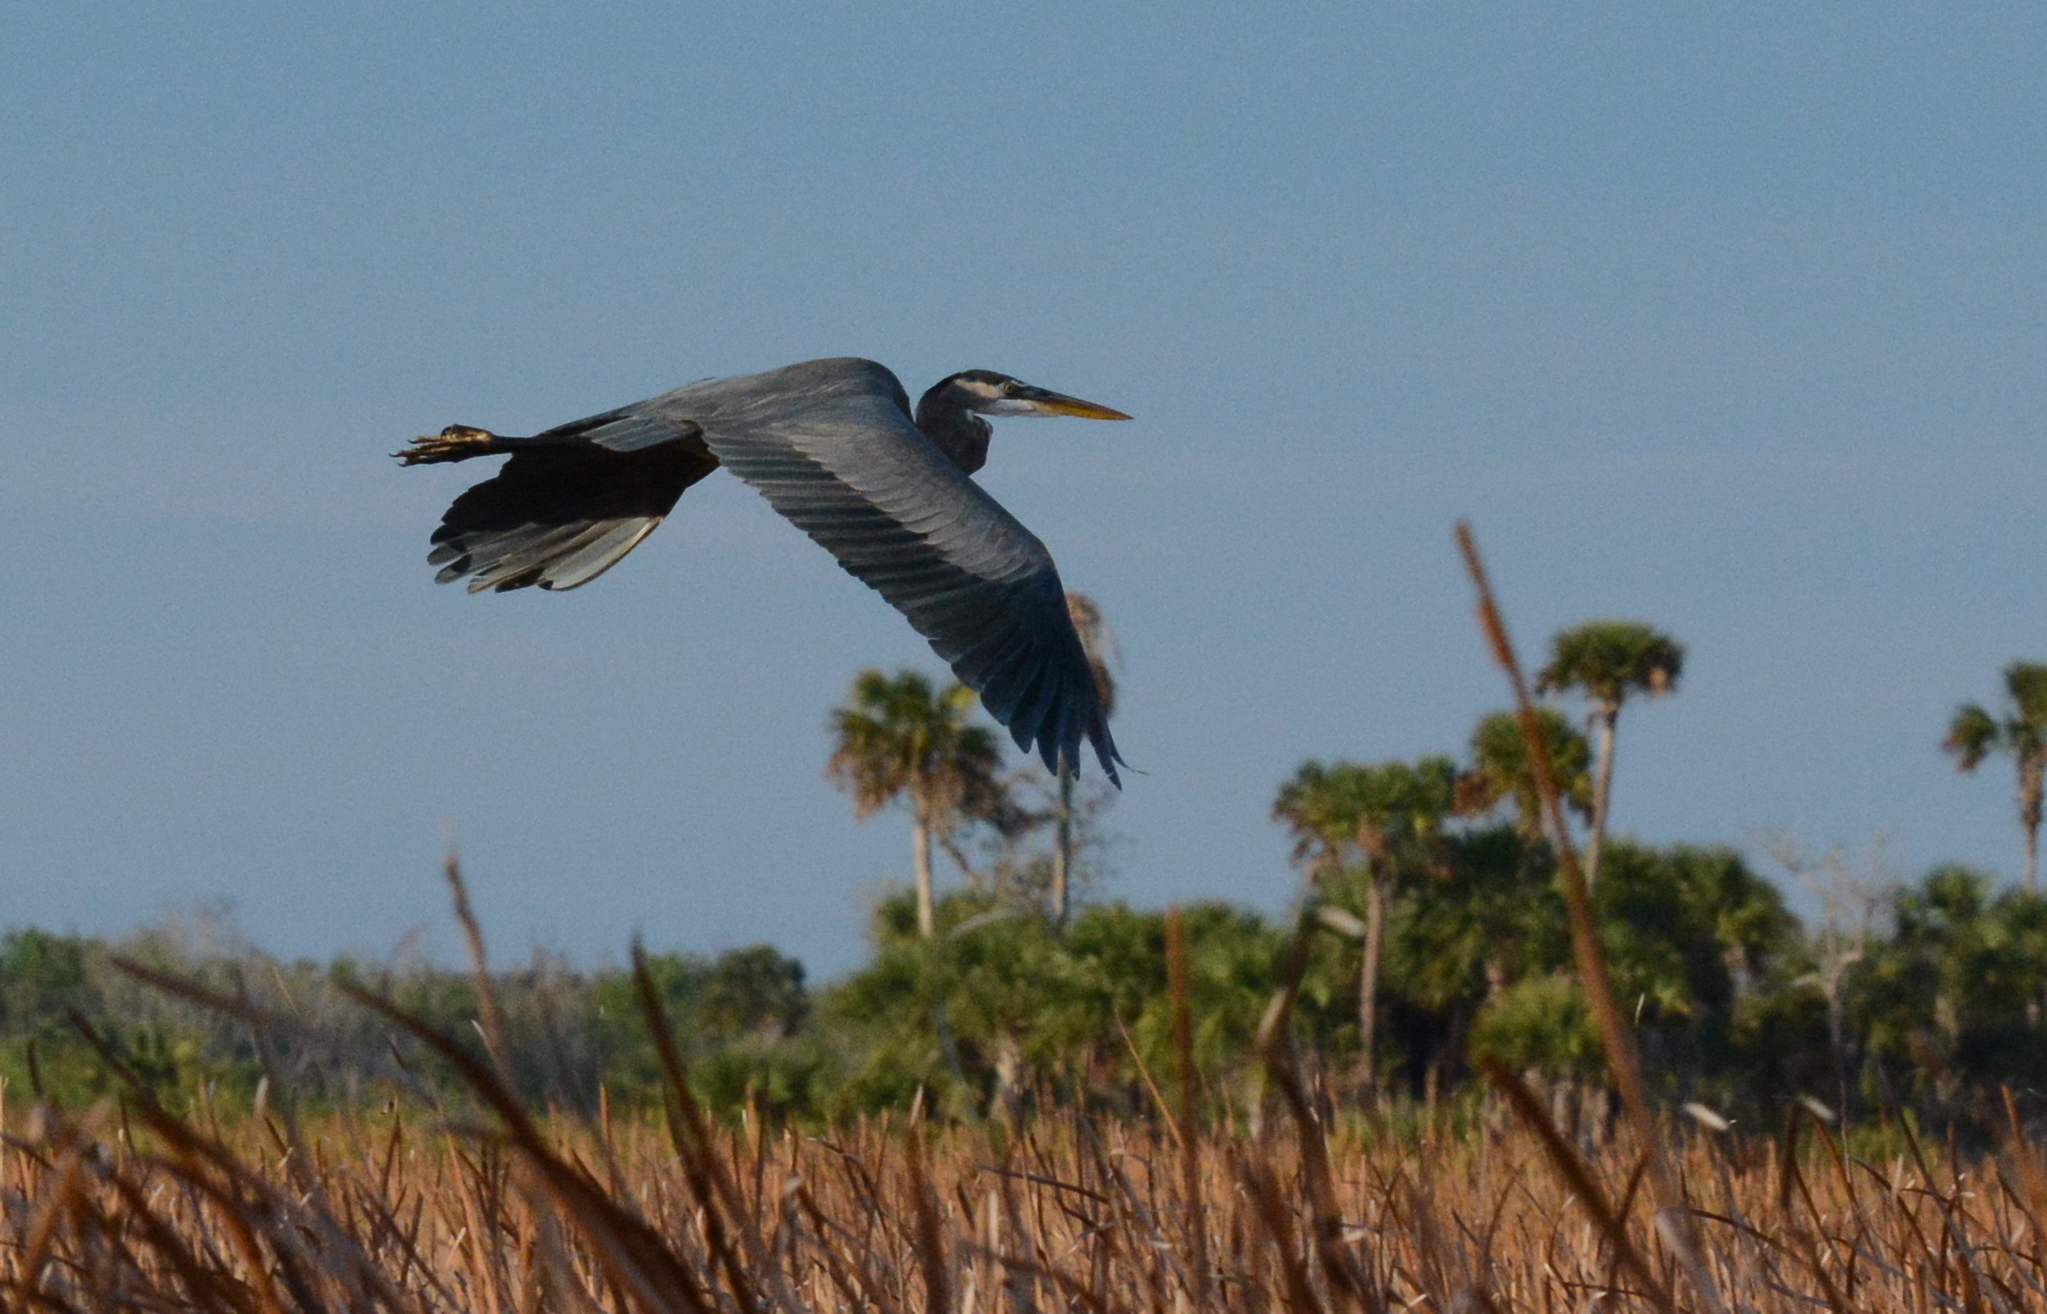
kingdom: Animalia
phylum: Chordata
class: Aves
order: Pelecaniformes
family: Ardeidae
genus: Ardea
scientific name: Ardea herodias
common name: Great blue heron
